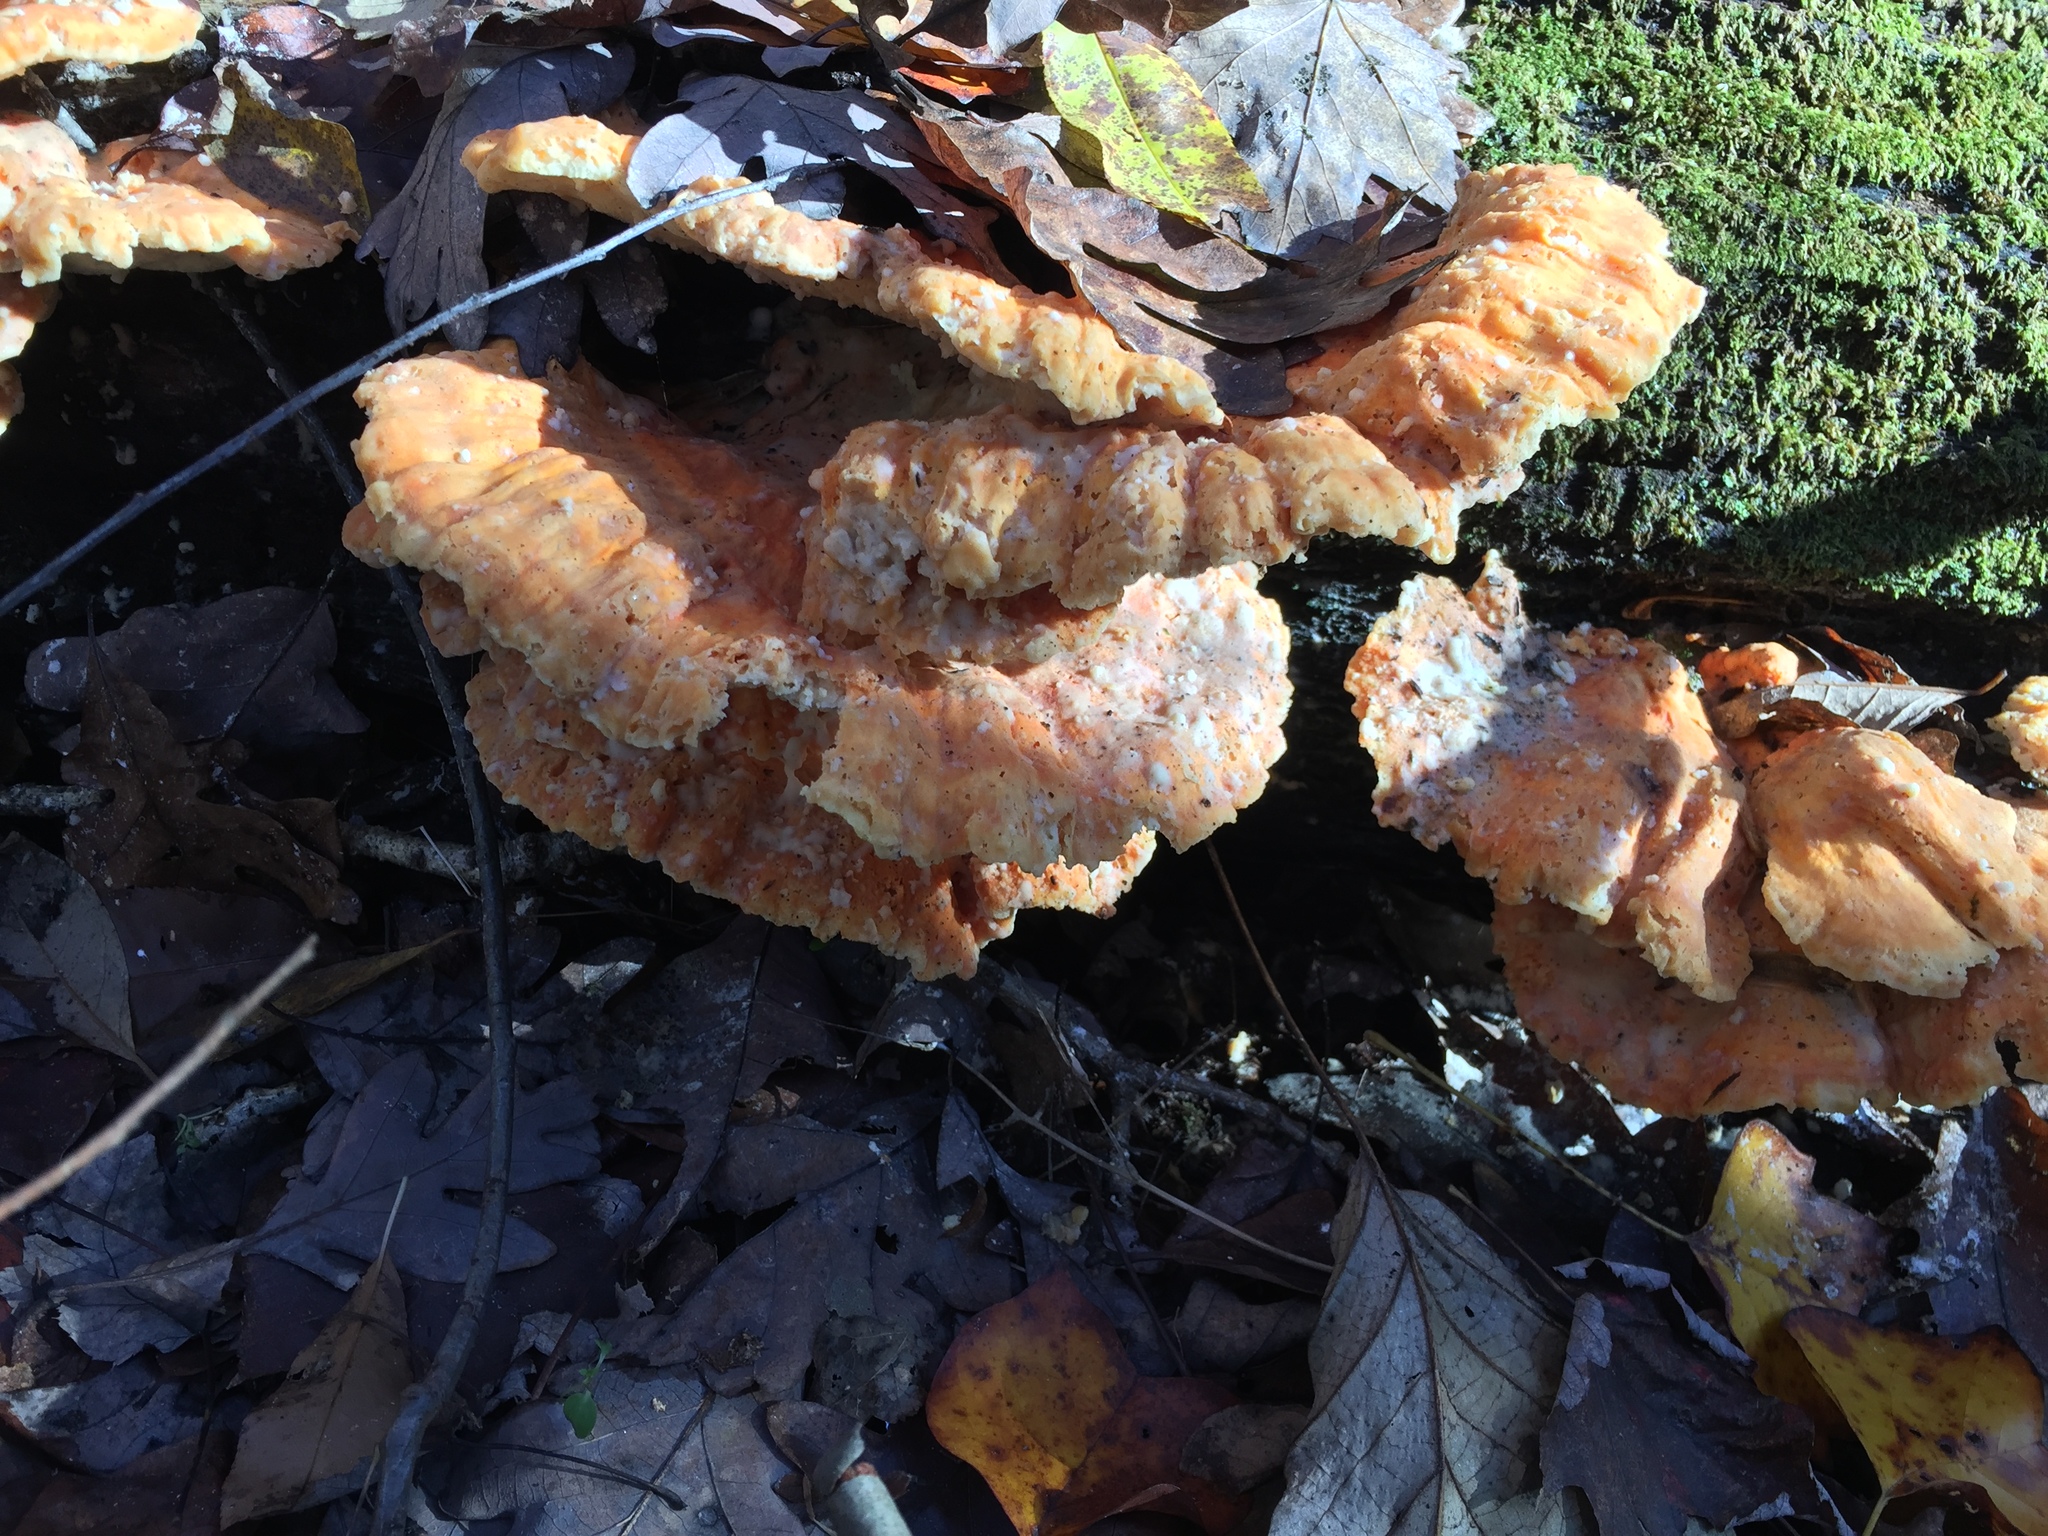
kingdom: Fungi
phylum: Basidiomycota
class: Agaricomycetes
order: Polyporales
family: Laetiporaceae
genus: Laetiporus
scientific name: Laetiporus sulphureus
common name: Chicken of the woods
